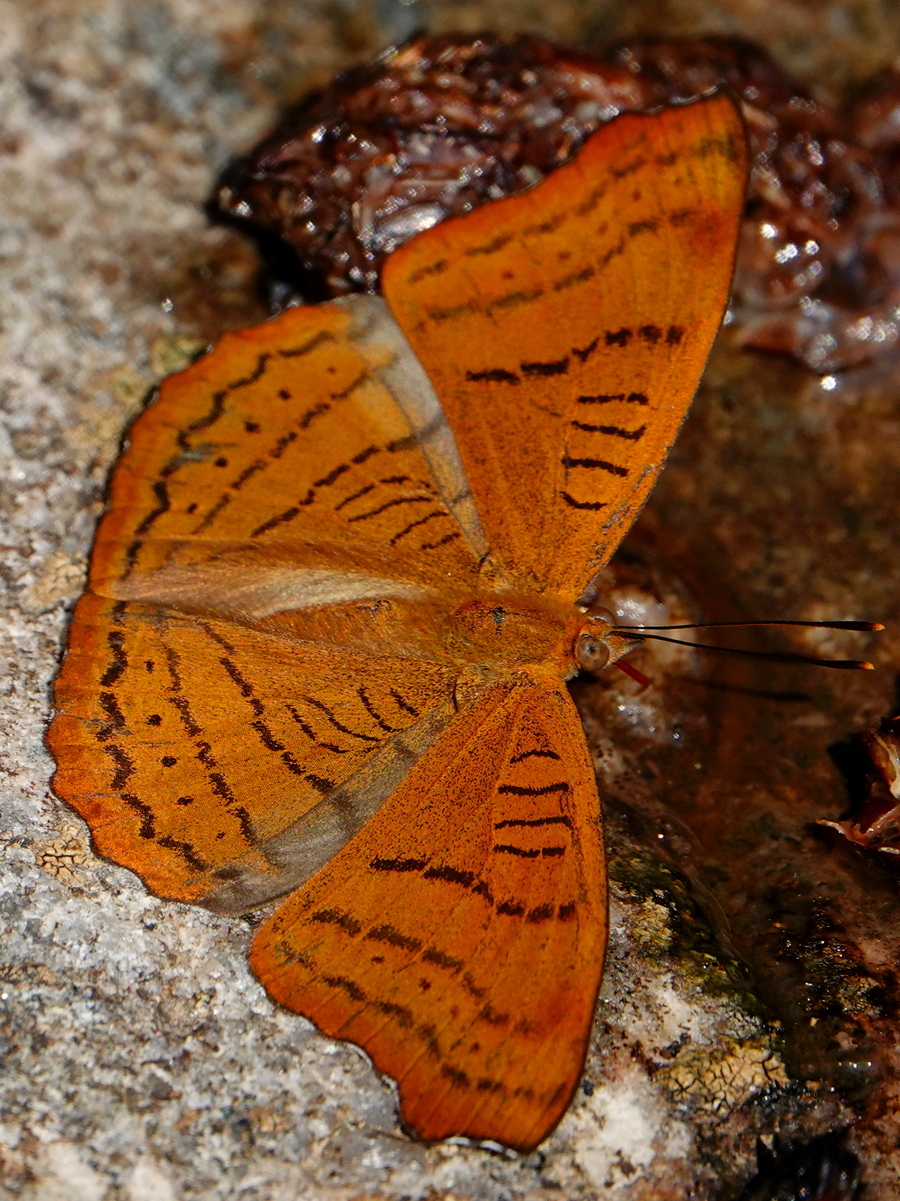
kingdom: Animalia
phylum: Arthropoda
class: Insecta
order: Lepidoptera
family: Nymphalidae
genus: Pseudergolis
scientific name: Pseudergolis wedah
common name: Tabby
